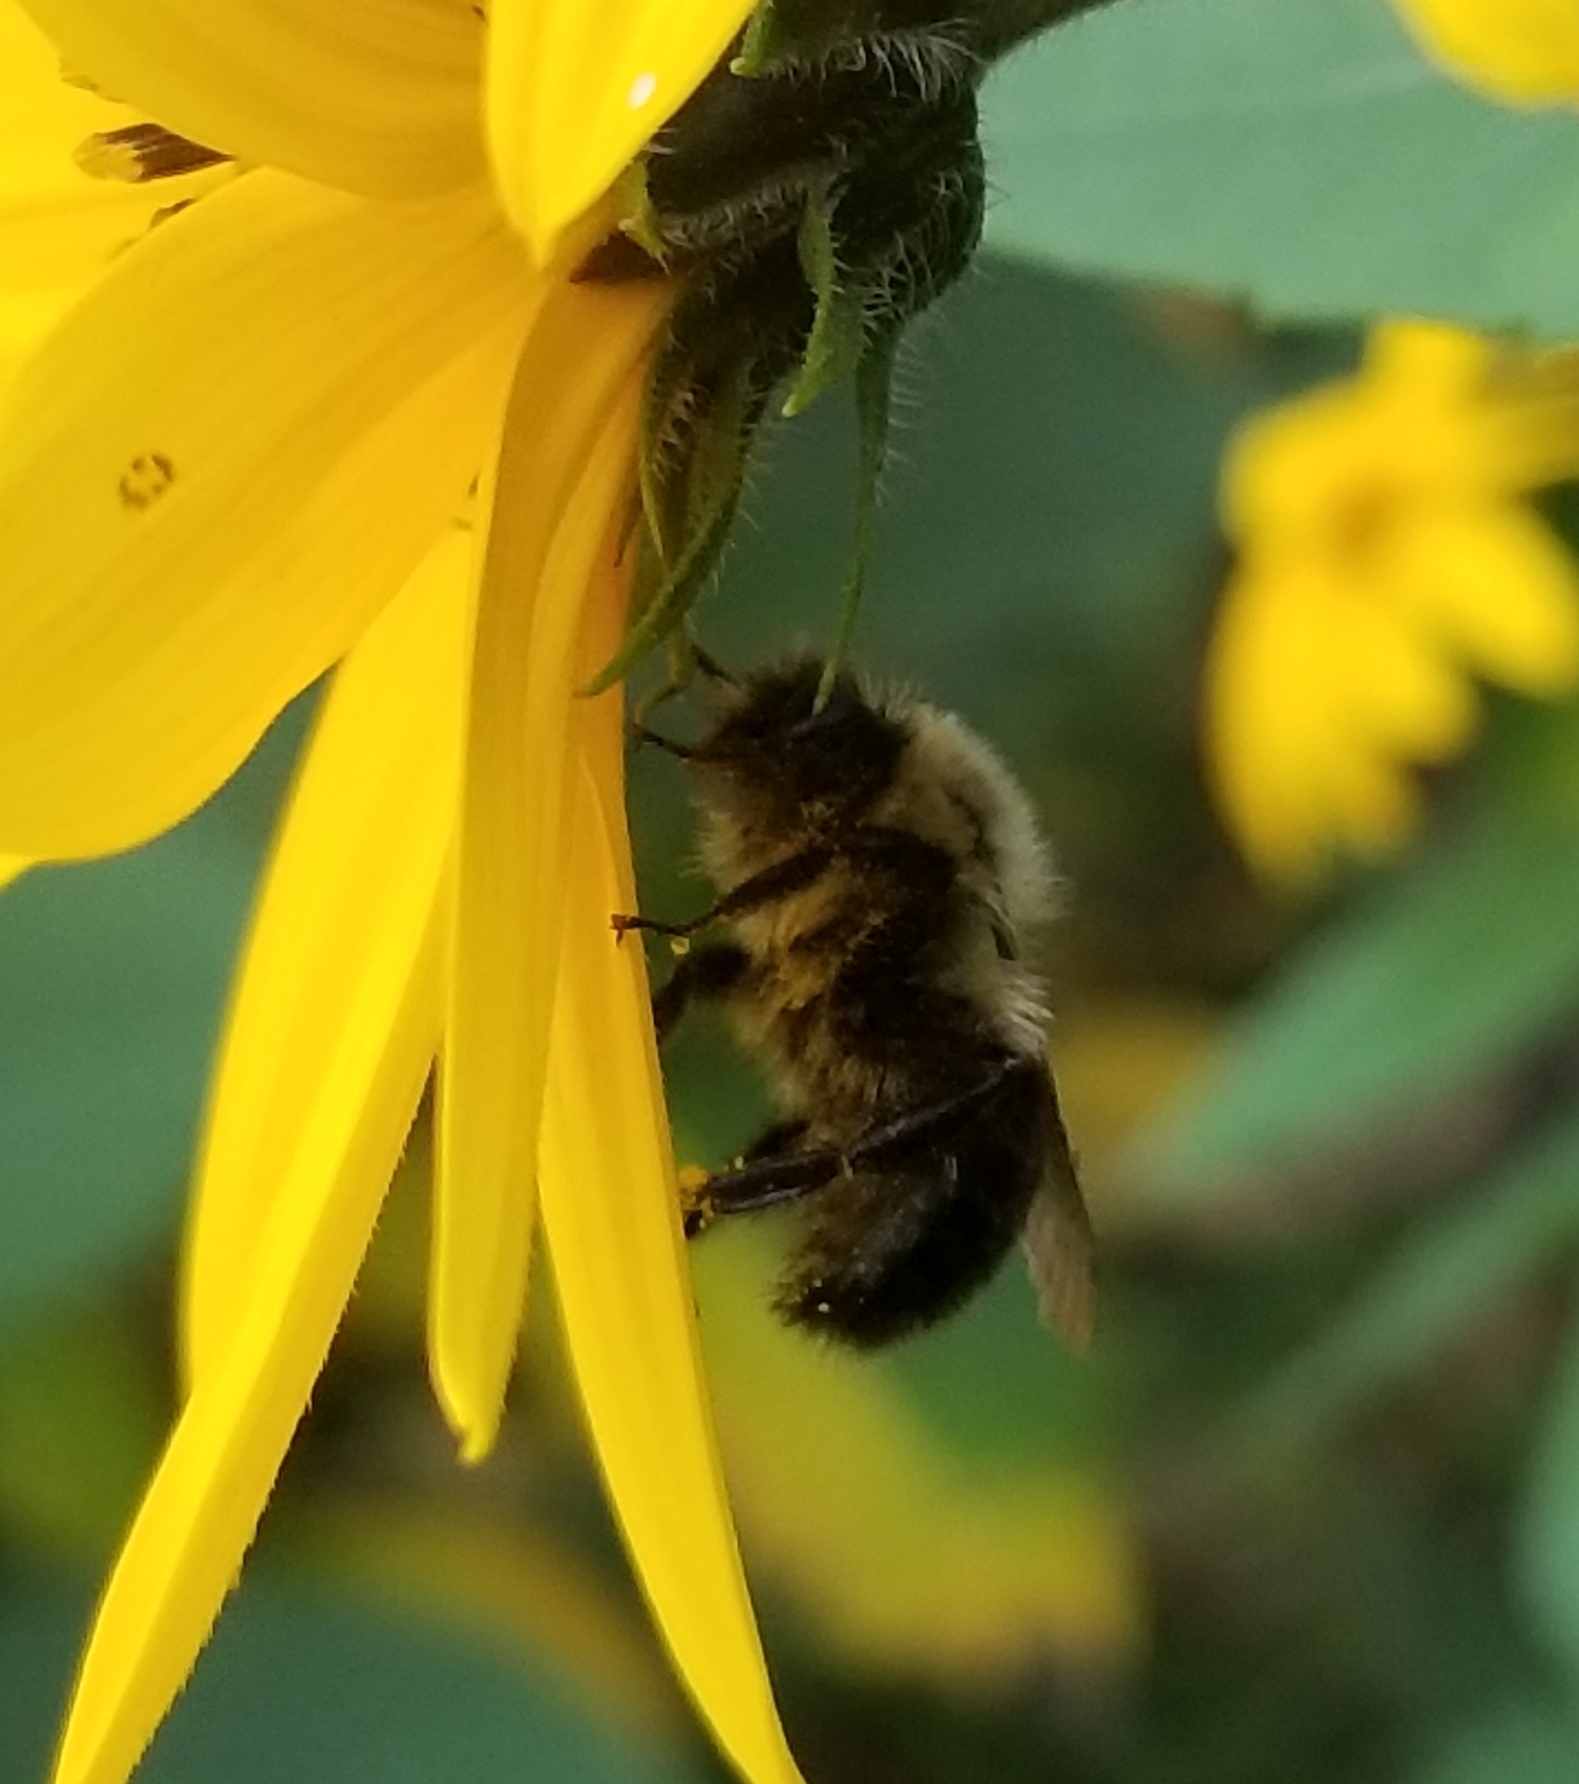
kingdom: Animalia
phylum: Arthropoda
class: Insecta
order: Hymenoptera
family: Apidae
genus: Bombus
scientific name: Bombus impatiens
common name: Common eastern bumble bee
